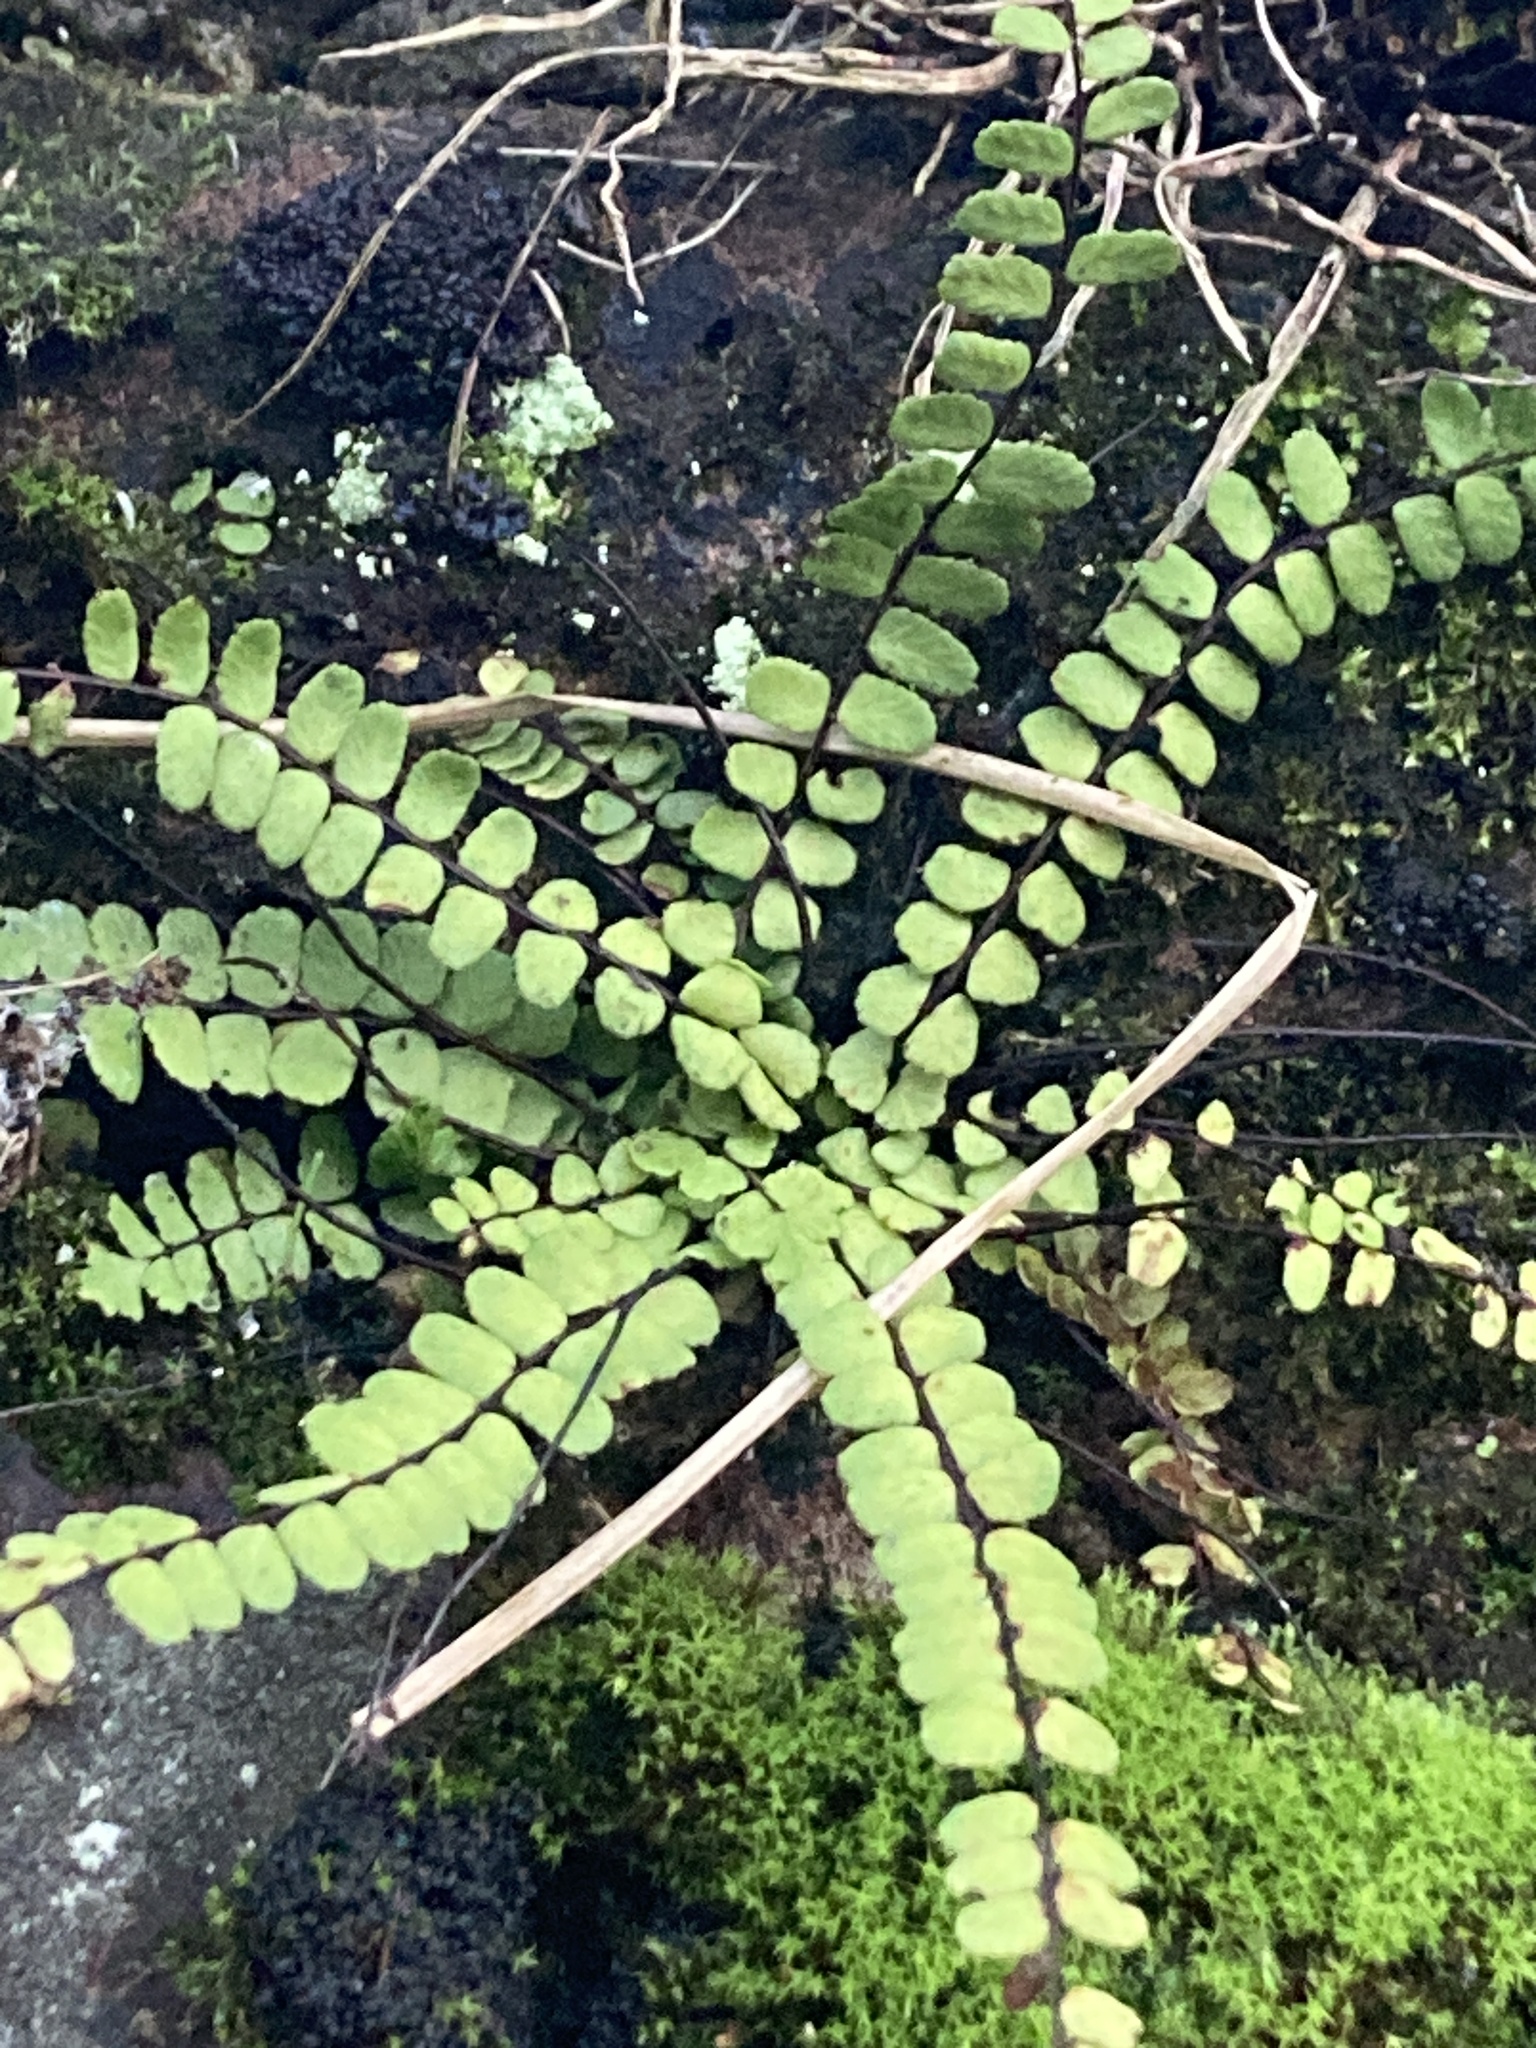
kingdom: Plantae
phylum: Tracheophyta
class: Polypodiopsida
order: Polypodiales
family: Aspleniaceae
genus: Asplenium
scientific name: Asplenium trichomanes
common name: Maidenhair spleenwort
